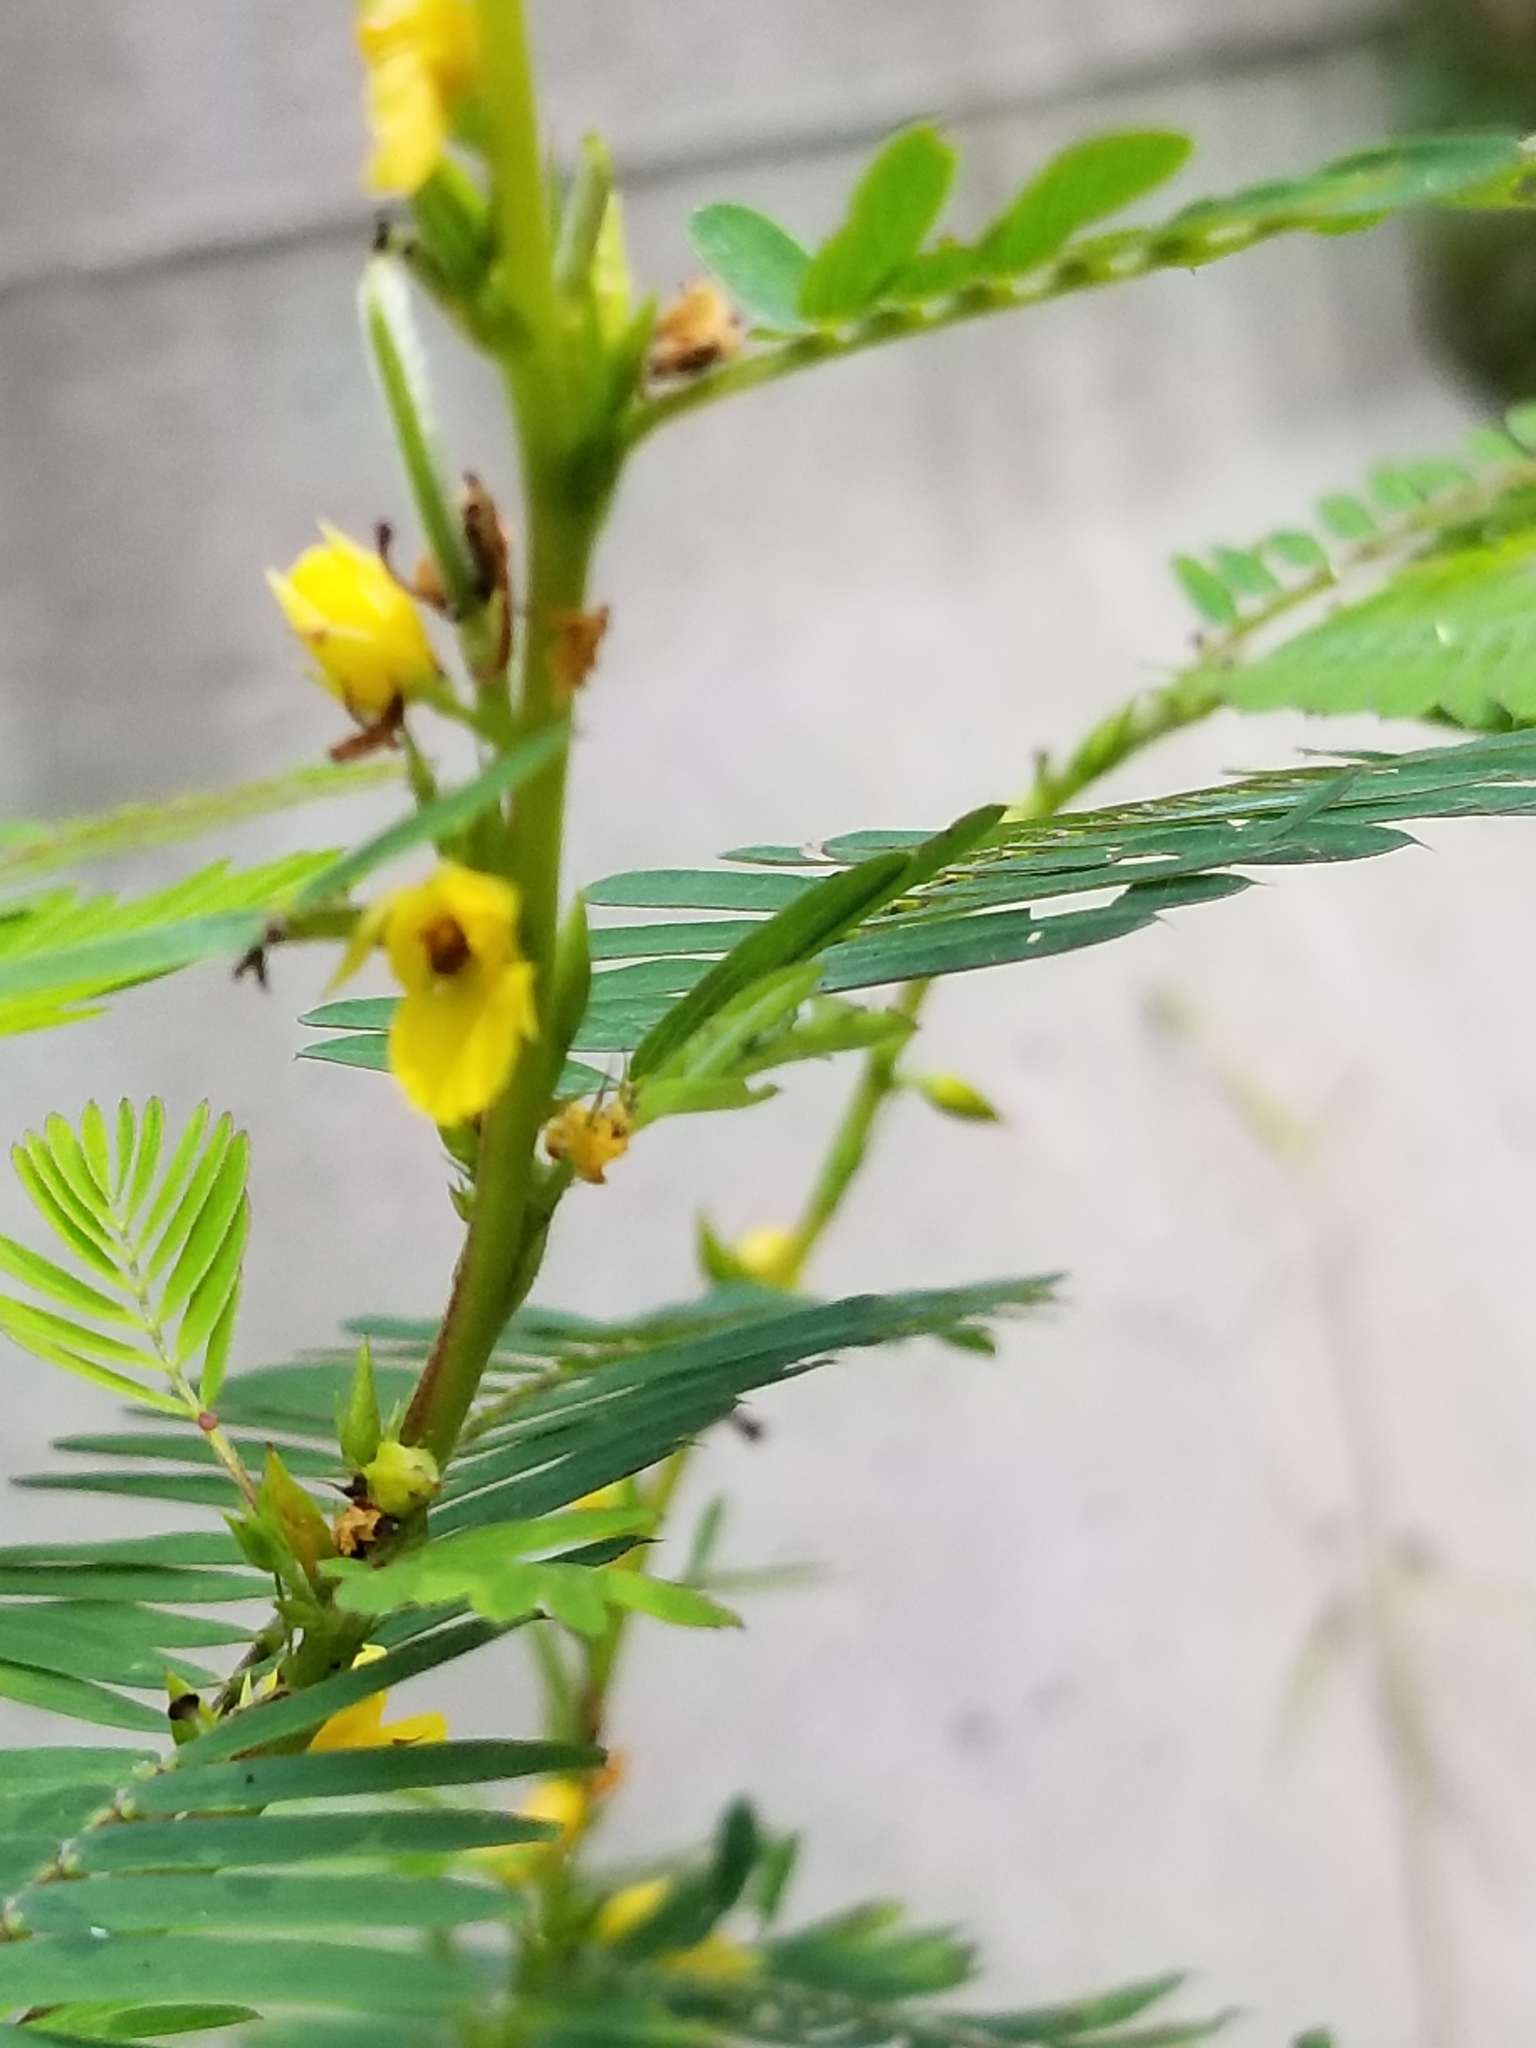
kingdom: Plantae
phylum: Tracheophyta
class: Magnoliopsida
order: Fabales
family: Fabaceae
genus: Chamaecrista
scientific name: Chamaecrista nictitans
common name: Sensitive cassia
